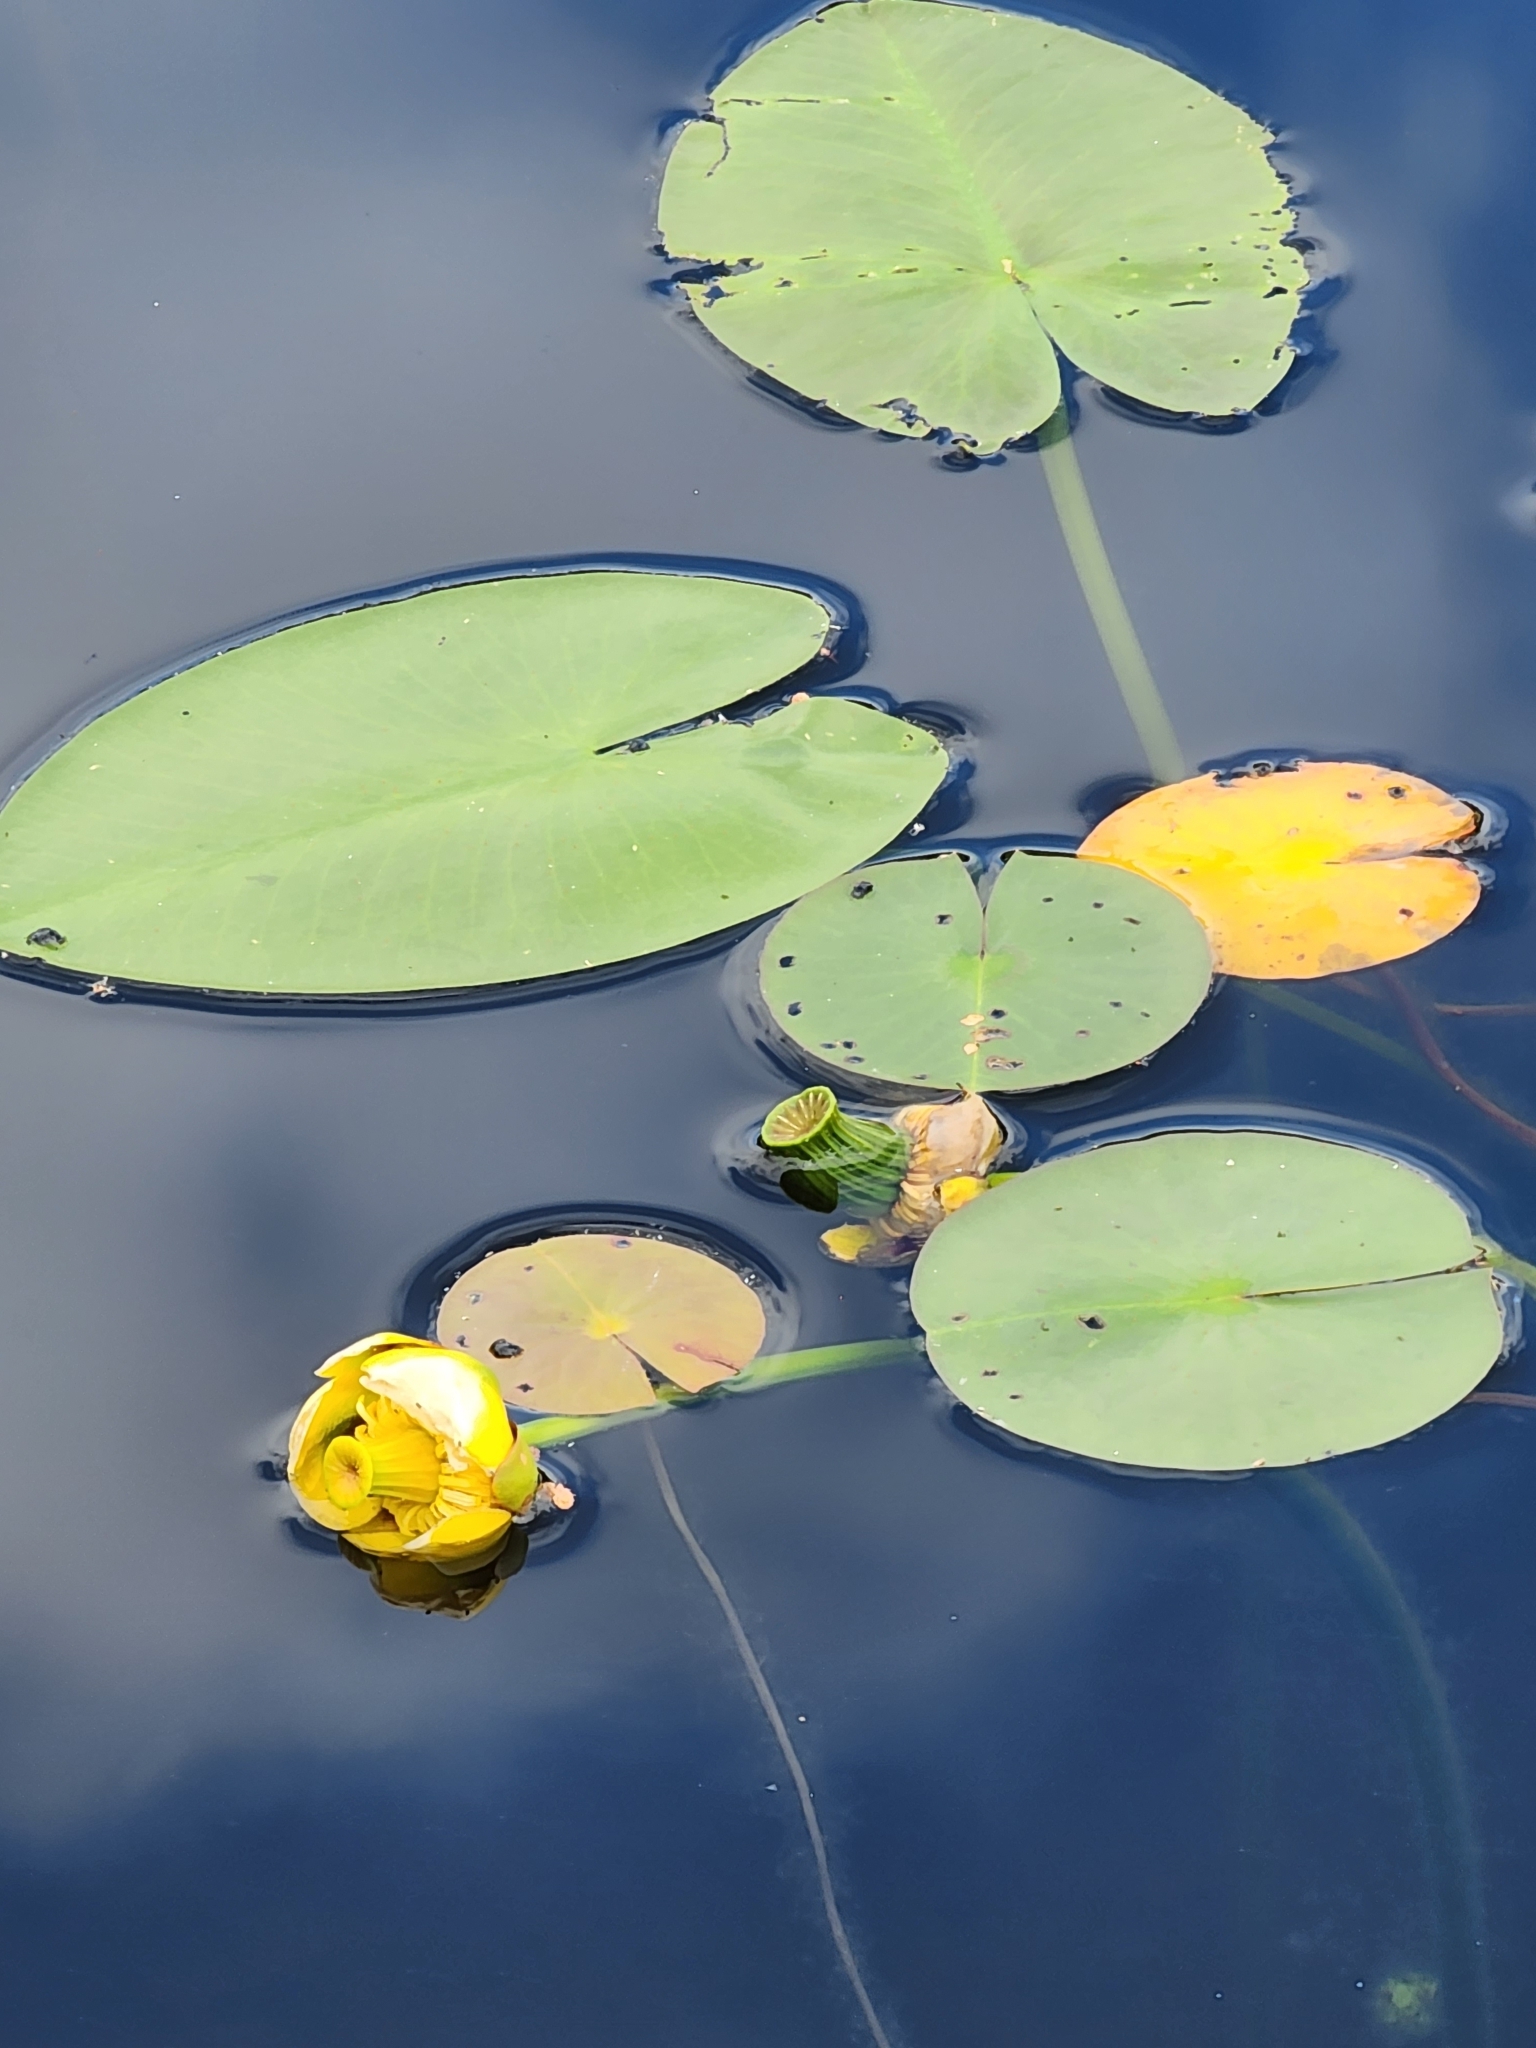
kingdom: Plantae
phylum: Tracheophyta
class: Magnoliopsida
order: Nymphaeales
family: Nymphaeaceae
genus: Nuphar
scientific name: Nuphar variegata
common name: Beaver-root
